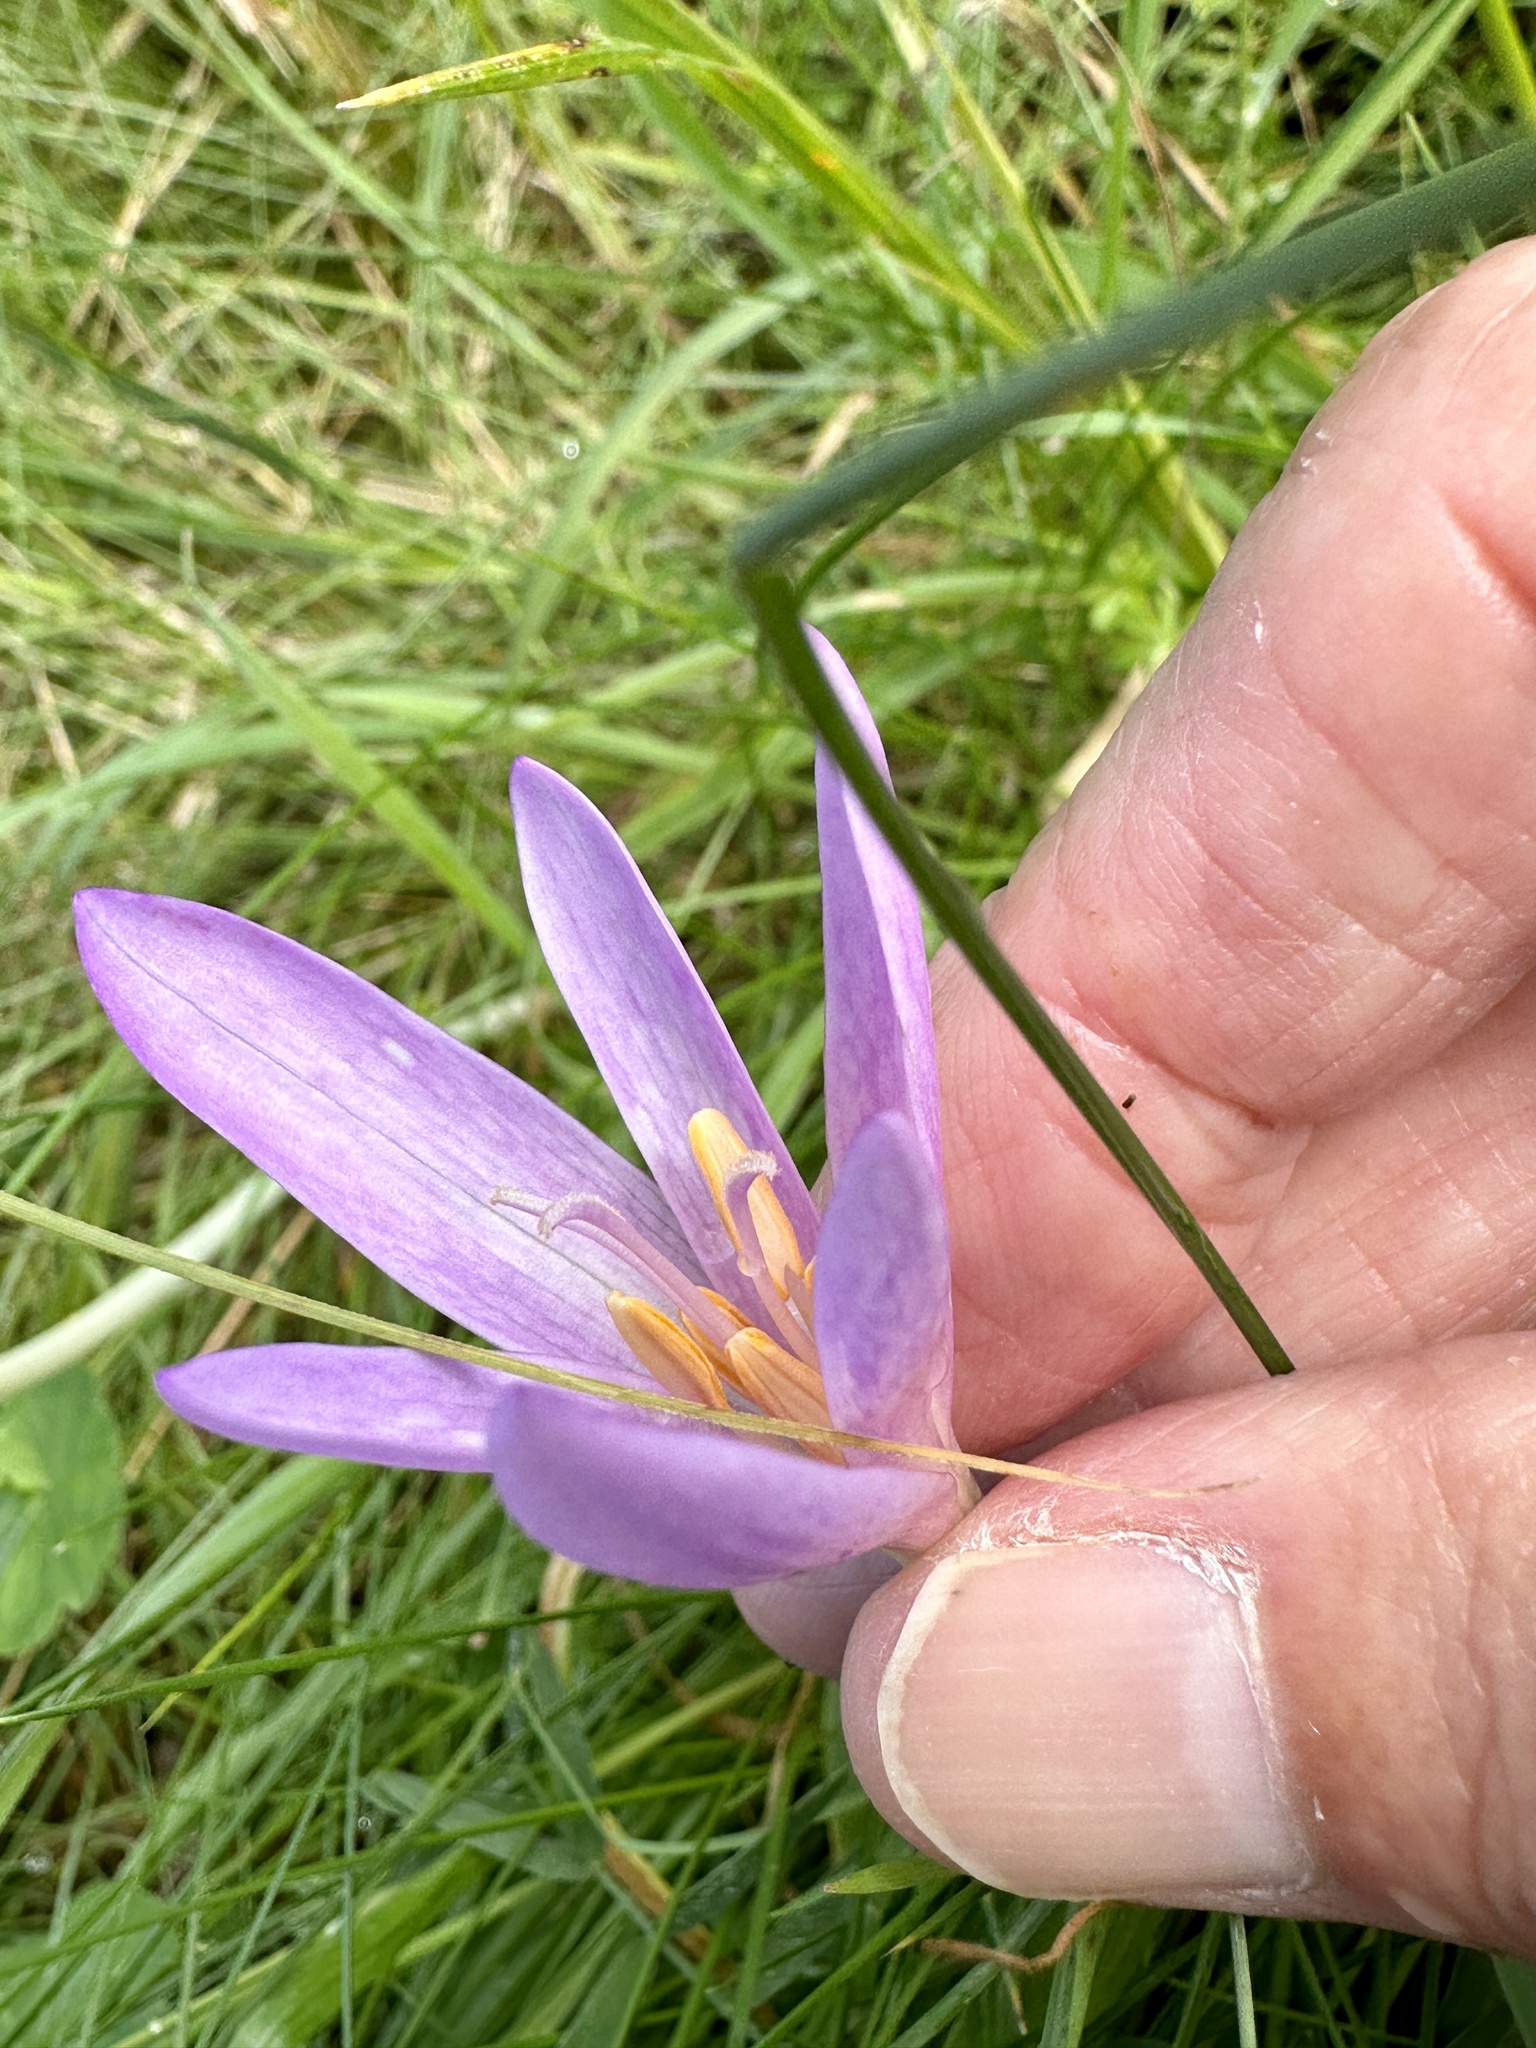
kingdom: Plantae
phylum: Tracheophyta
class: Liliopsida
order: Liliales
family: Colchicaceae
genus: Colchicum
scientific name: Colchicum autumnale
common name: Autumn crocus
